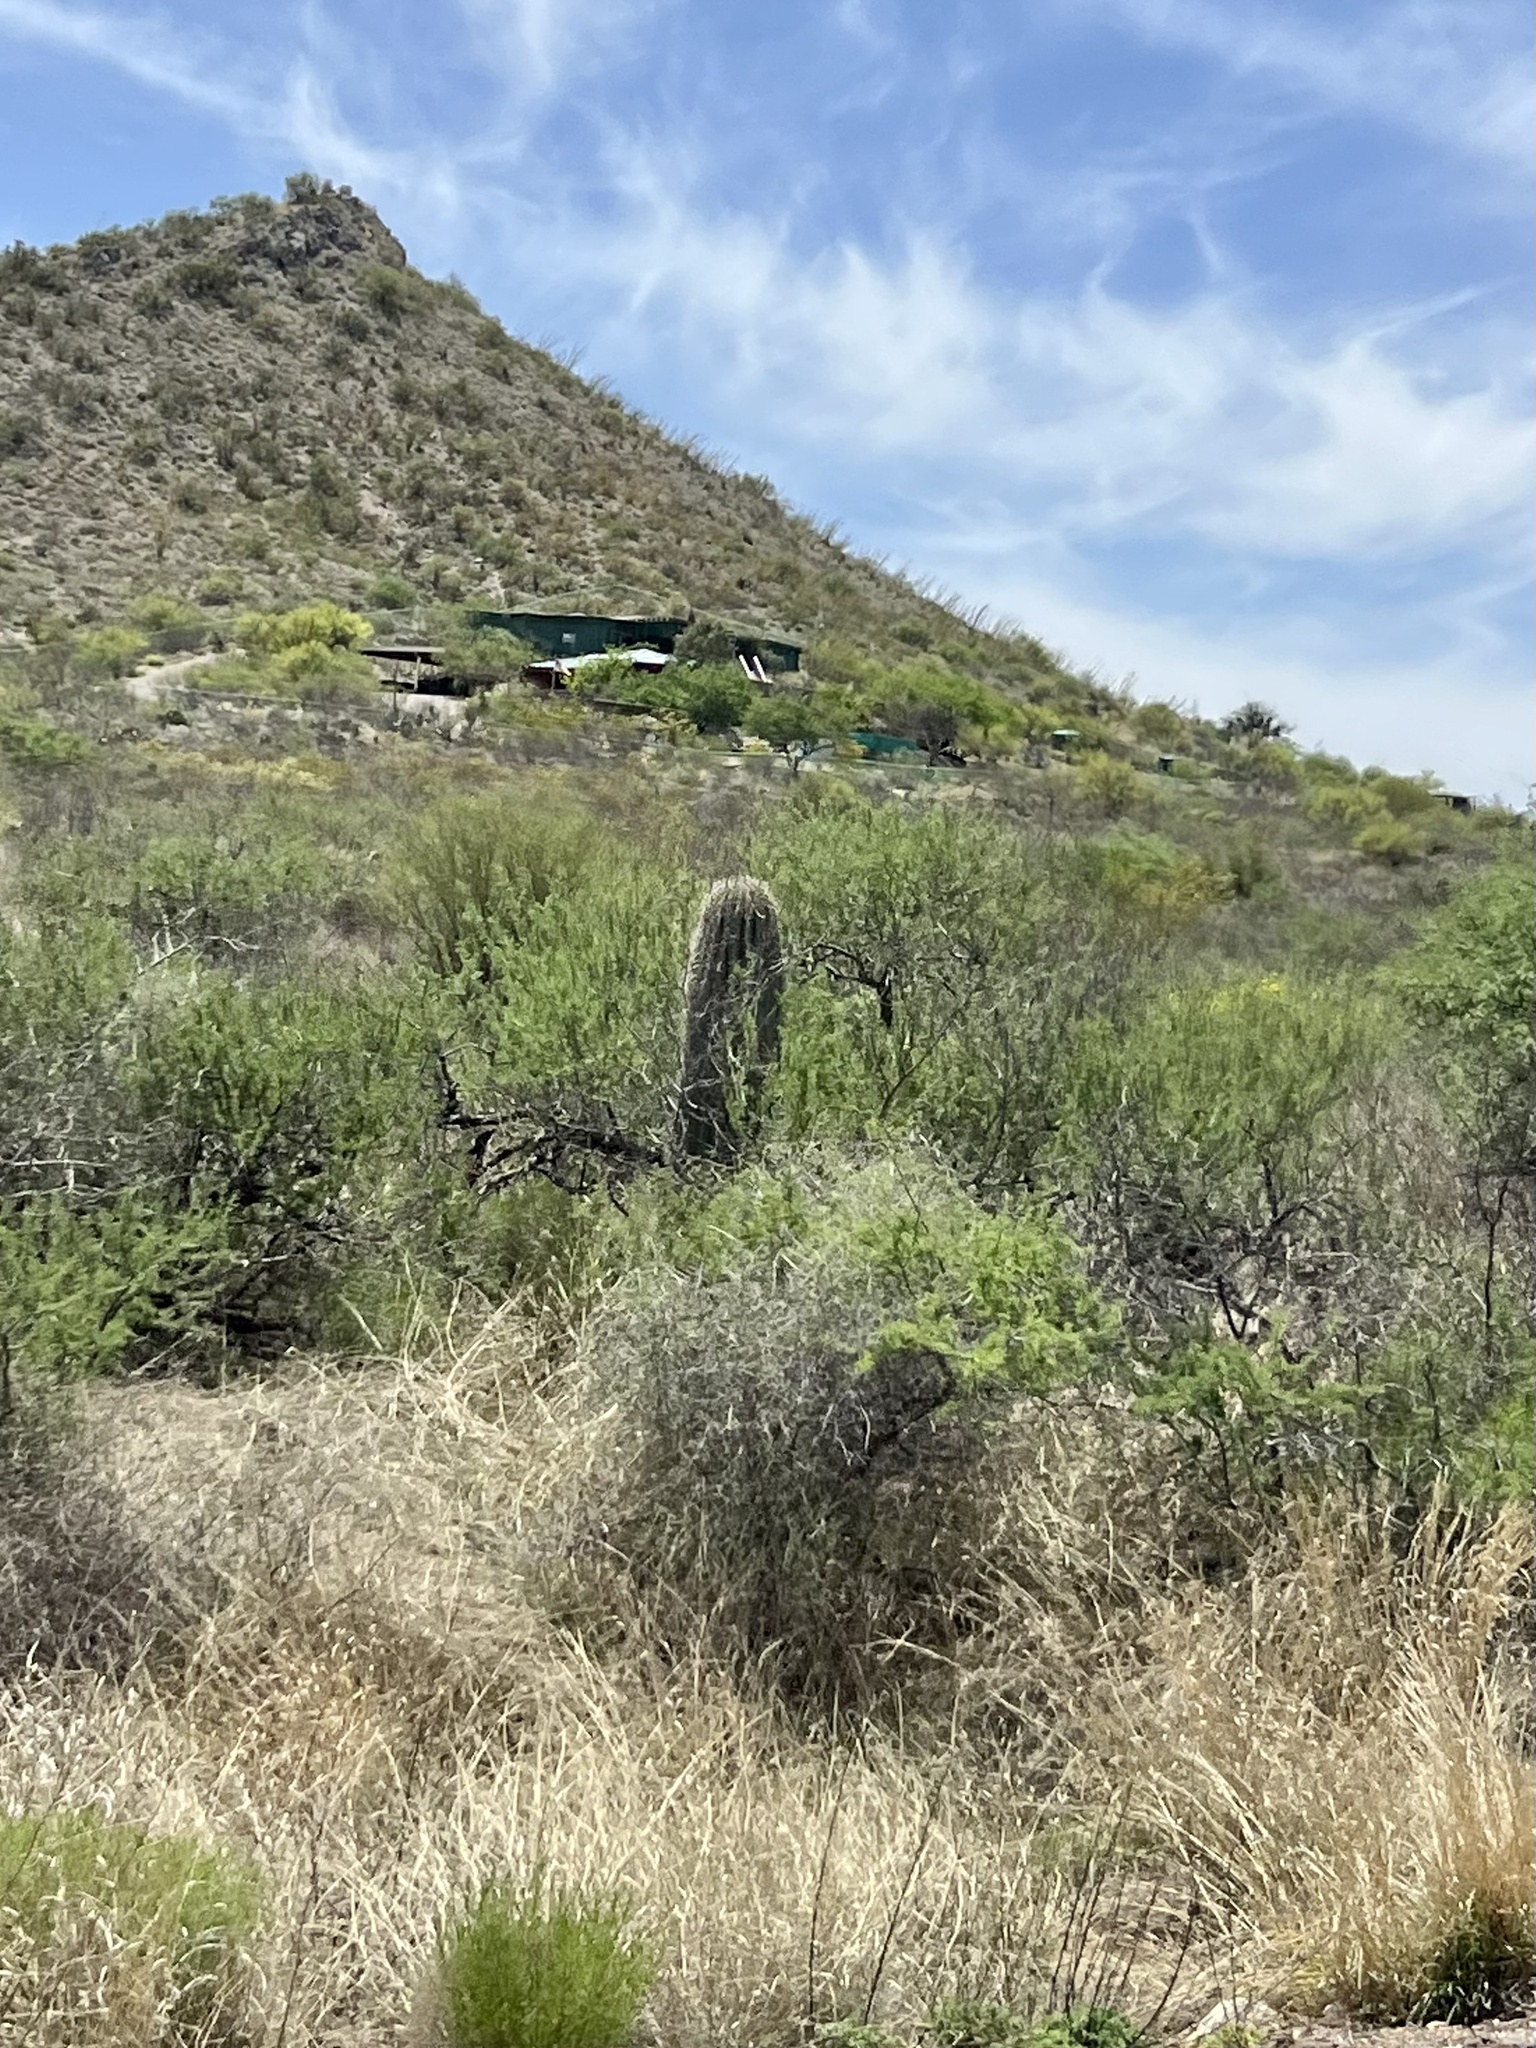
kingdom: Plantae
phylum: Tracheophyta
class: Magnoliopsida
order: Caryophyllales
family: Cactaceae
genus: Carnegiea
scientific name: Carnegiea gigantea
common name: Saguaro
